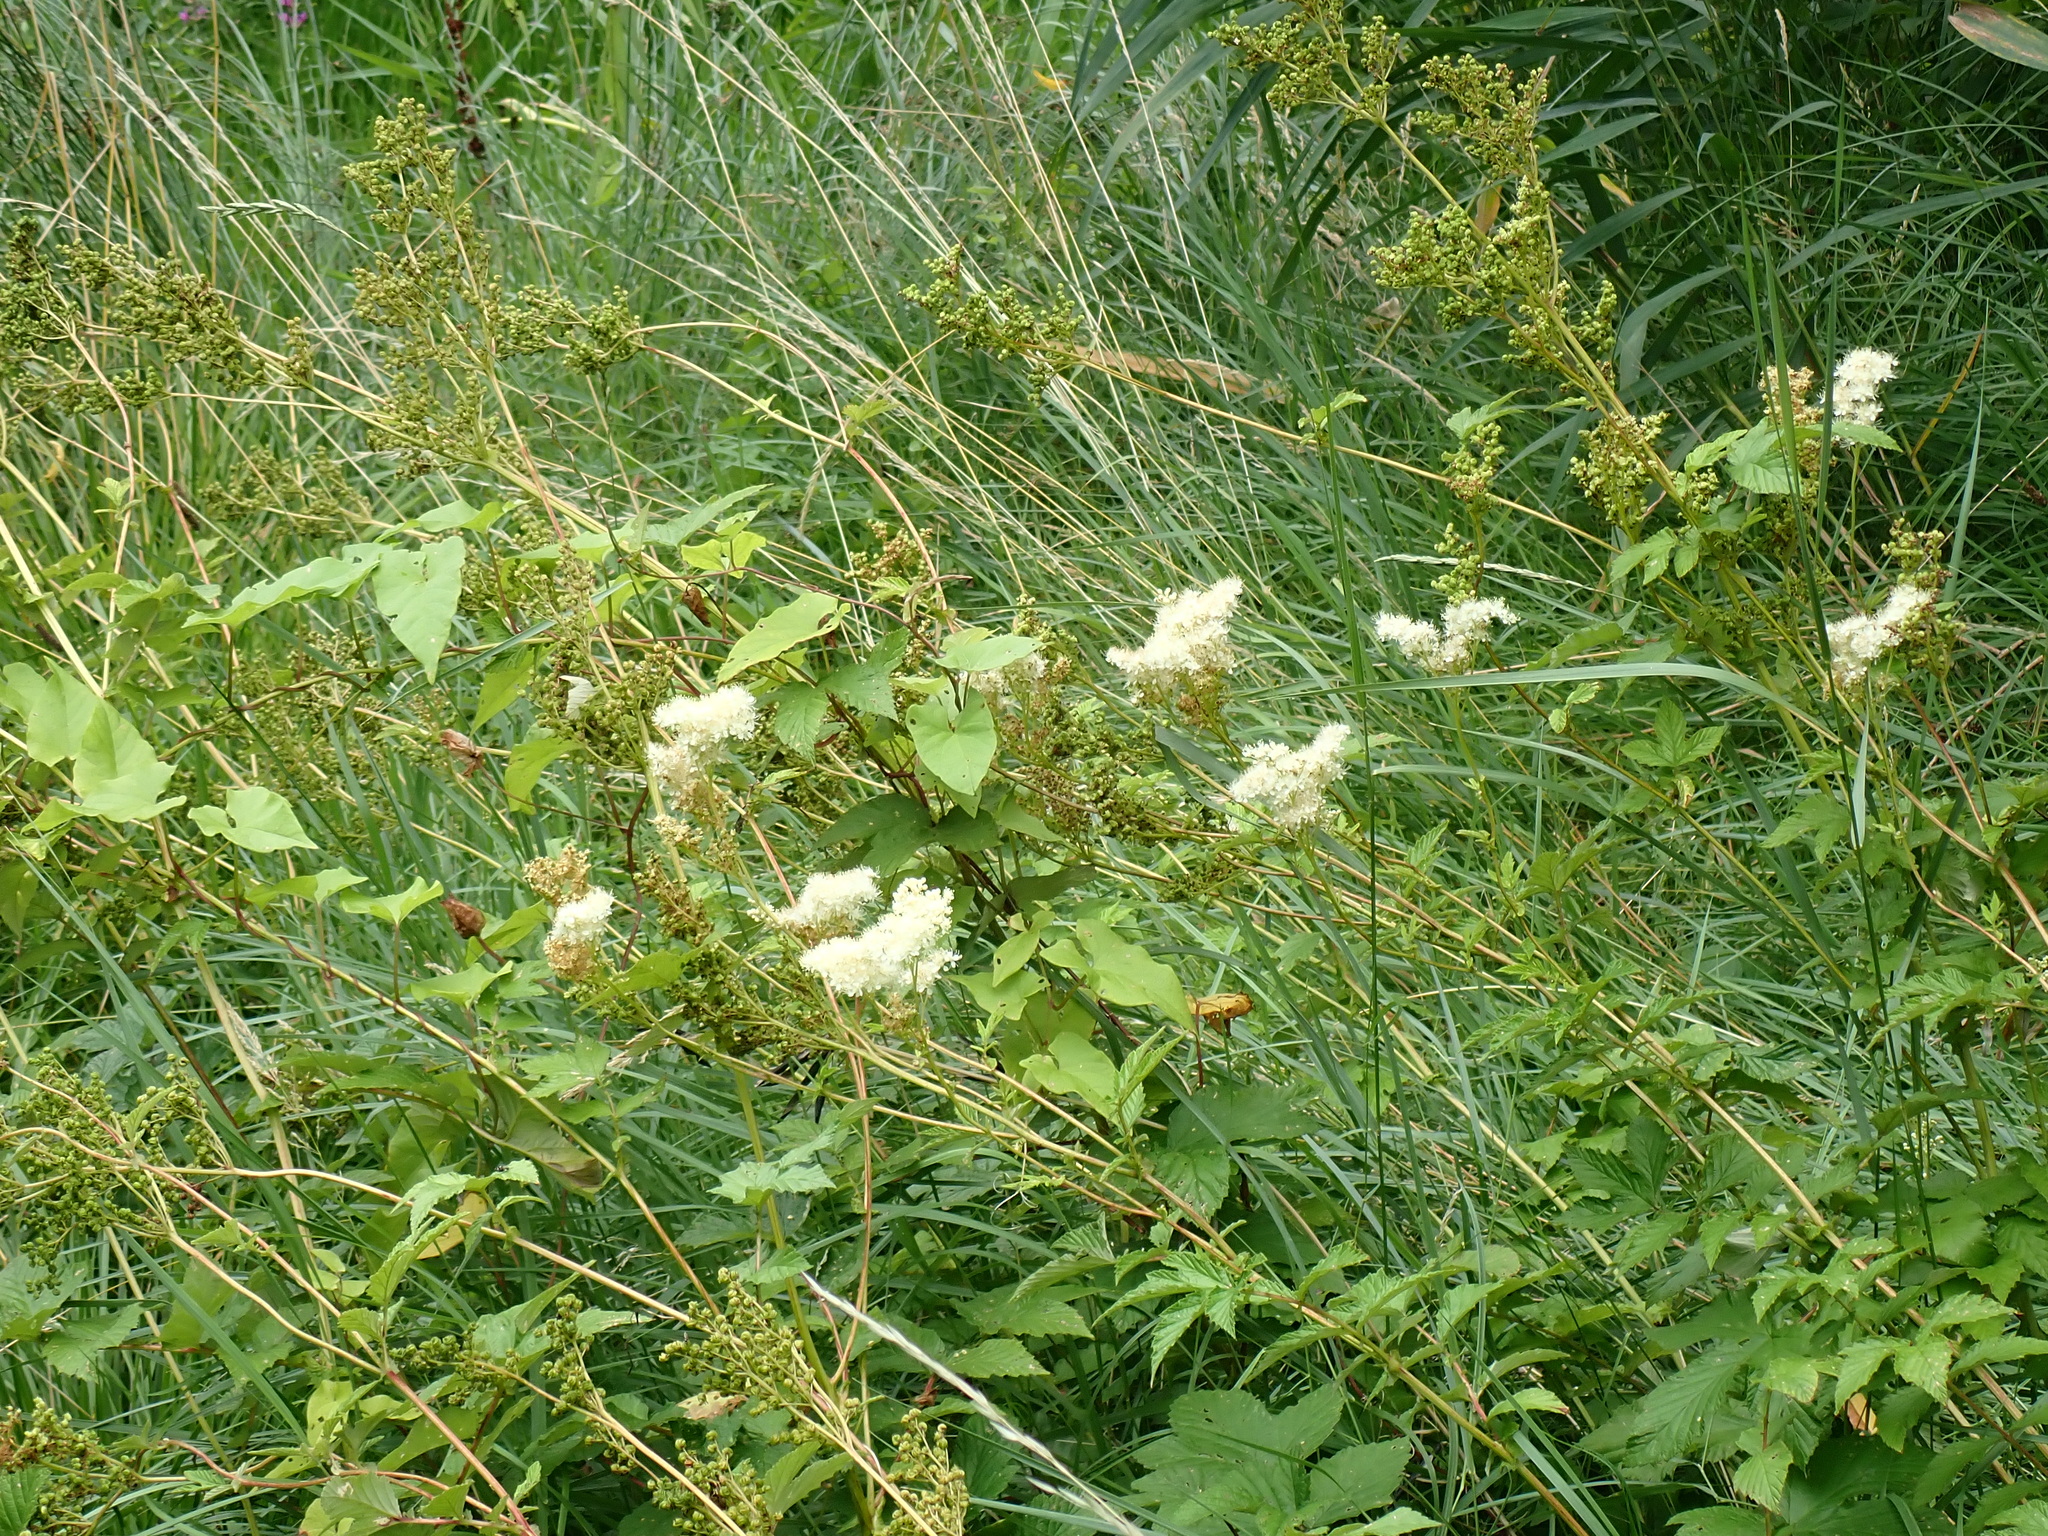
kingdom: Plantae
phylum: Tracheophyta
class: Magnoliopsida
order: Rosales
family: Rosaceae
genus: Filipendula
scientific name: Filipendula ulmaria
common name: Meadowsweet
